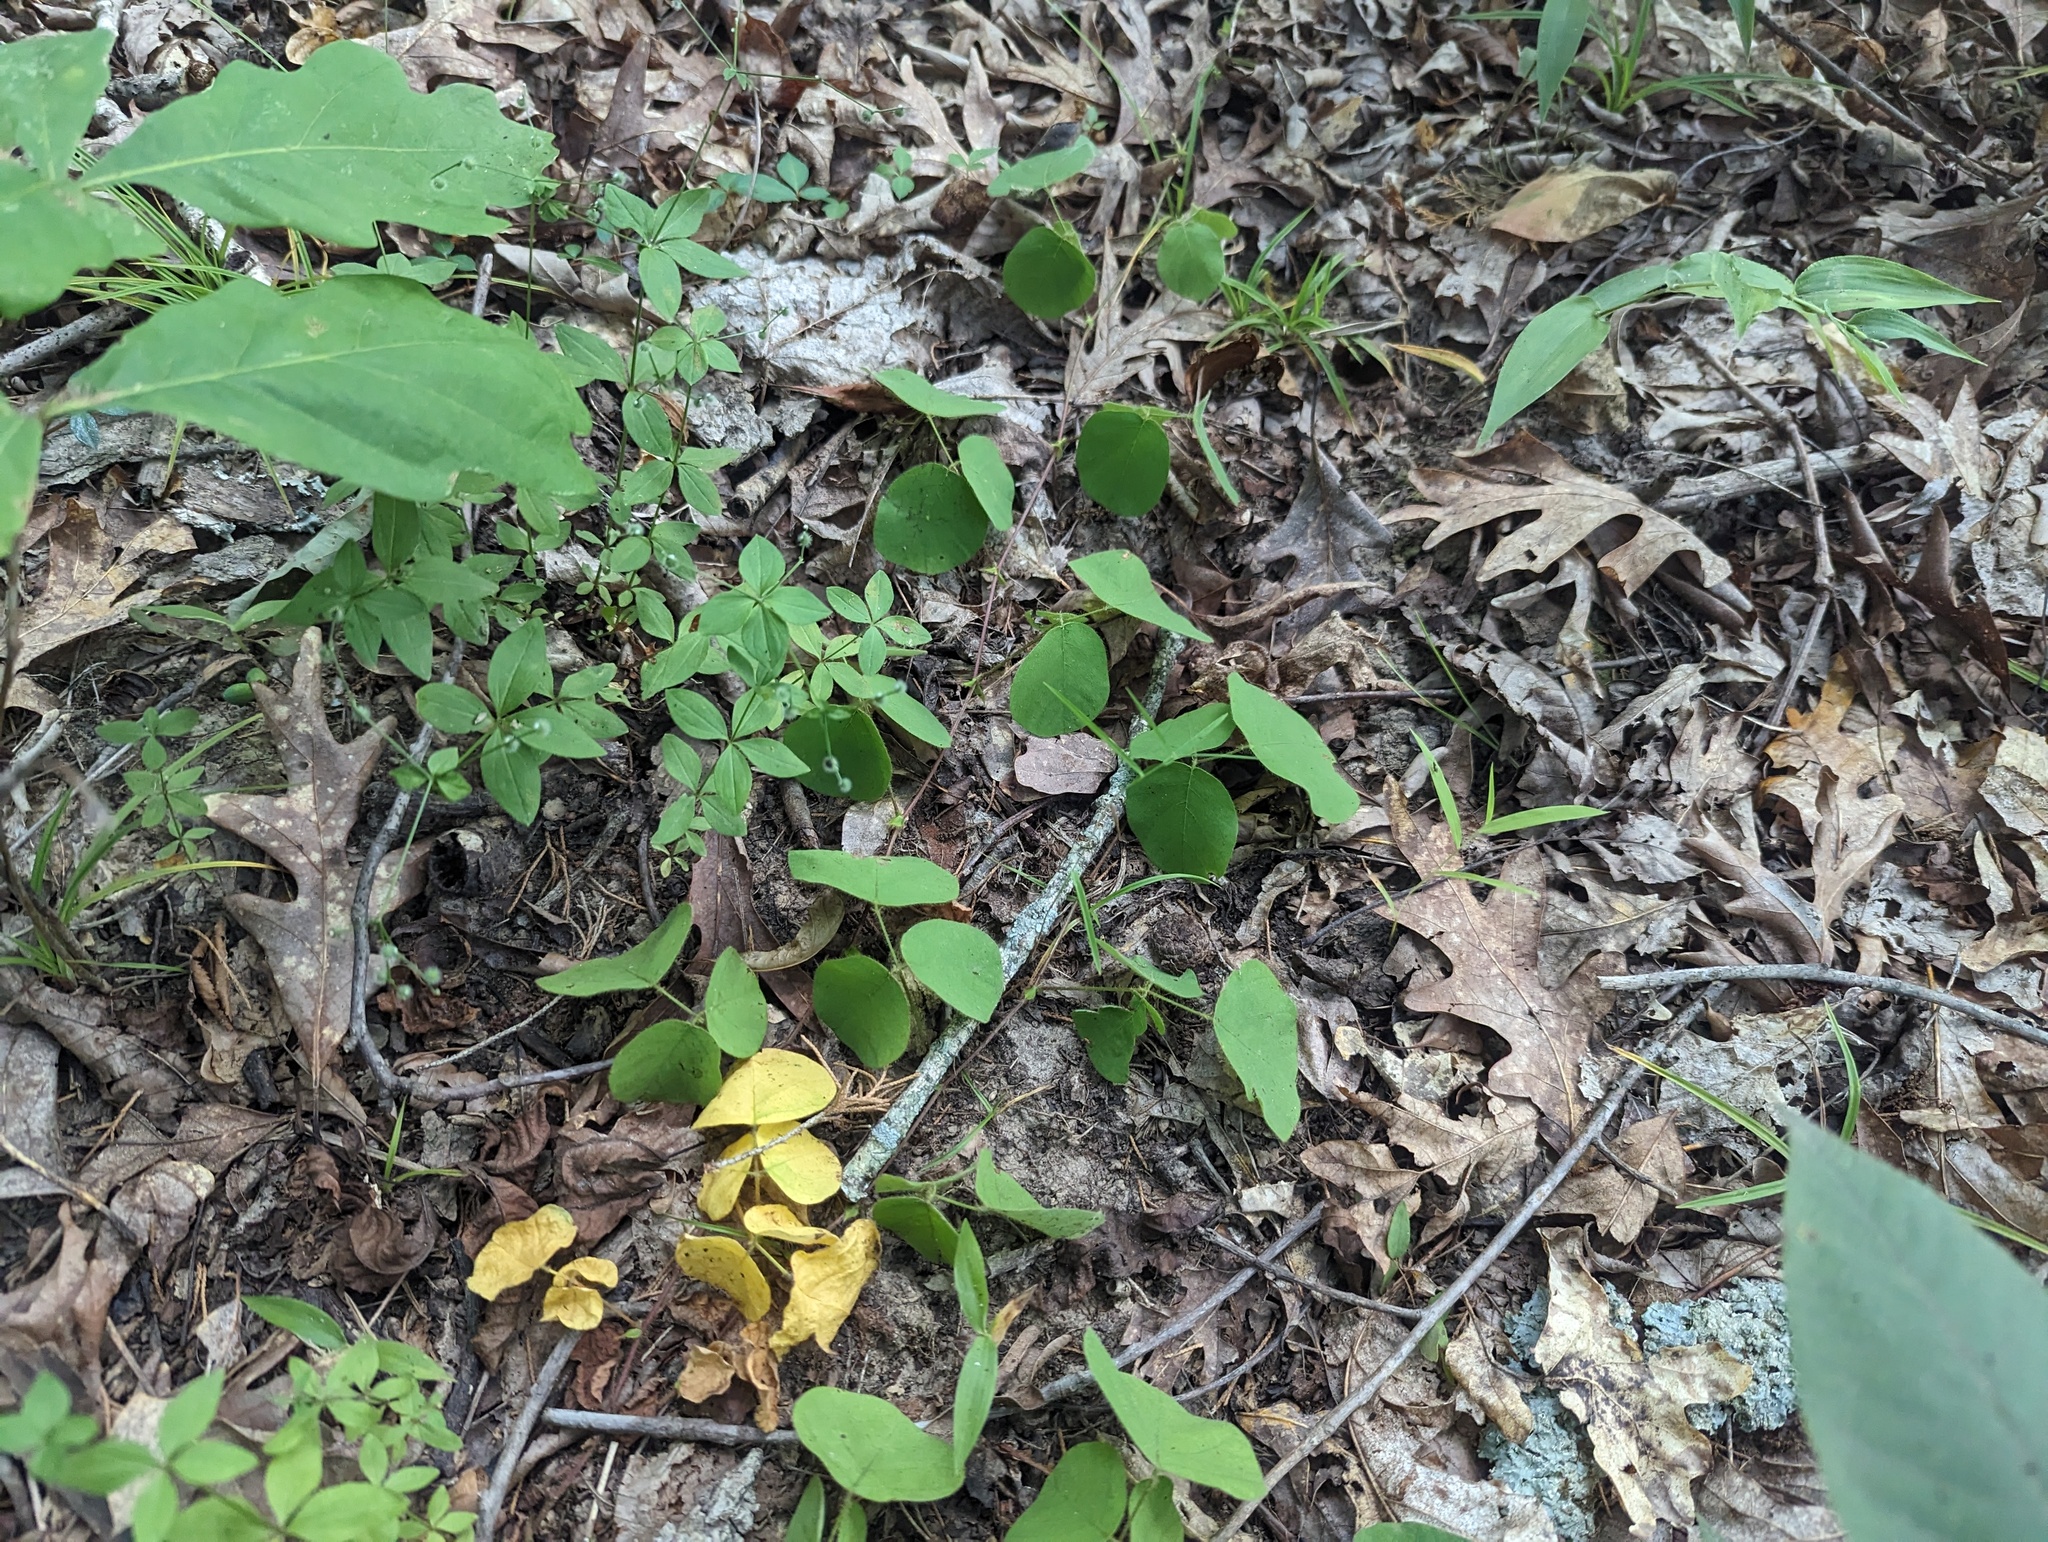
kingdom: Plantae
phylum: Tracheophyta
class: Magnoliopsida
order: Fabales
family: Fabaceae
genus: Desmodium
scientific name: Desmodium rotundifolium
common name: Dollarleaf
